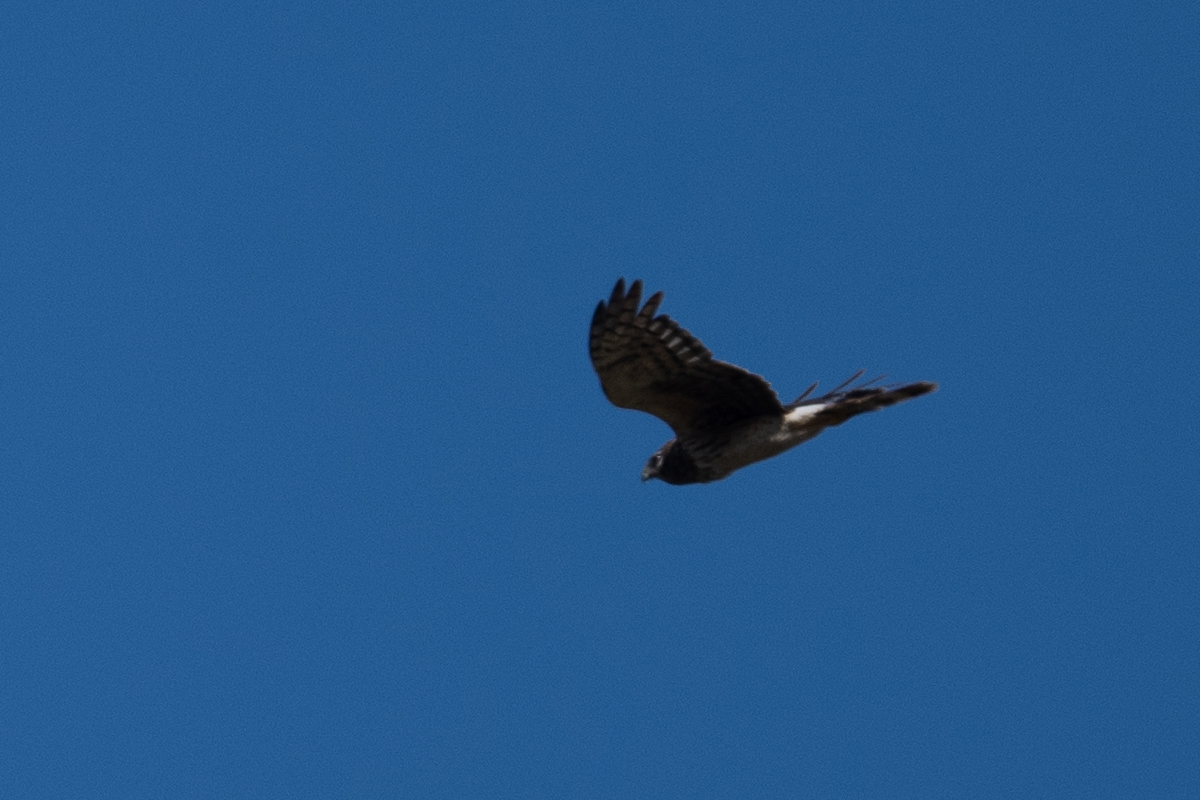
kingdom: Animalia
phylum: Chordata
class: Aves
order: Accipitriformes
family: Accipitridae
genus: Circus
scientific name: Circus cyaneus
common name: Hen harrier
